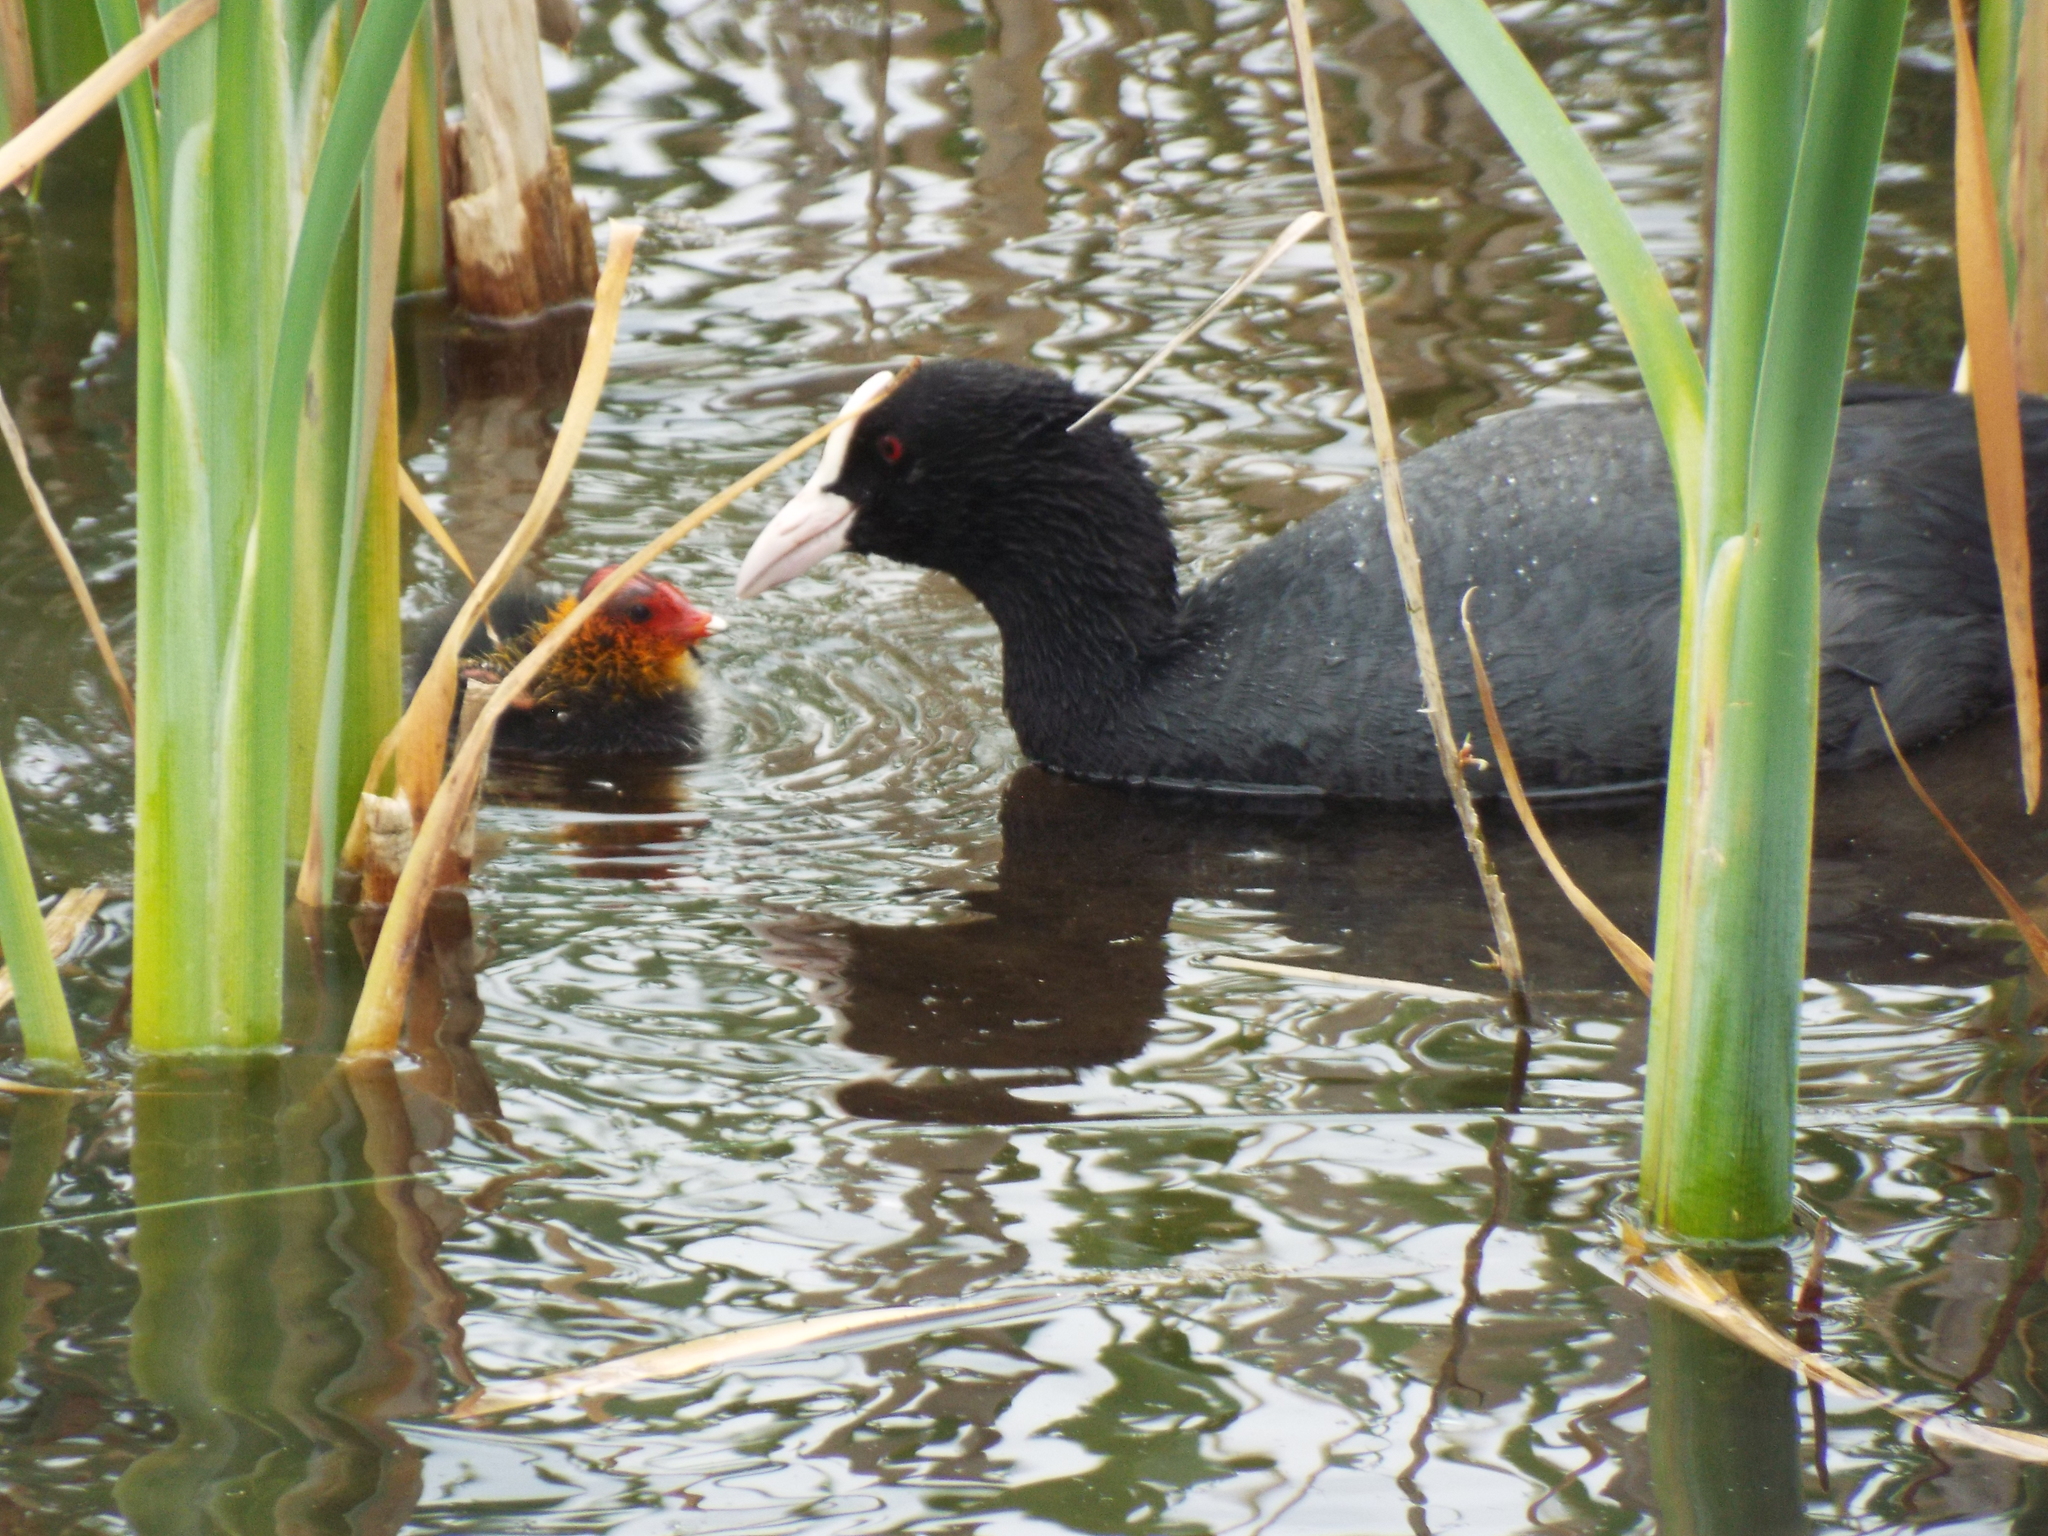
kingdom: Animalia
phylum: Chordata
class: Aves
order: Gruiformes
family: Rallidae
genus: Fulica
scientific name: Fulica atra
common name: Eurasian coot
